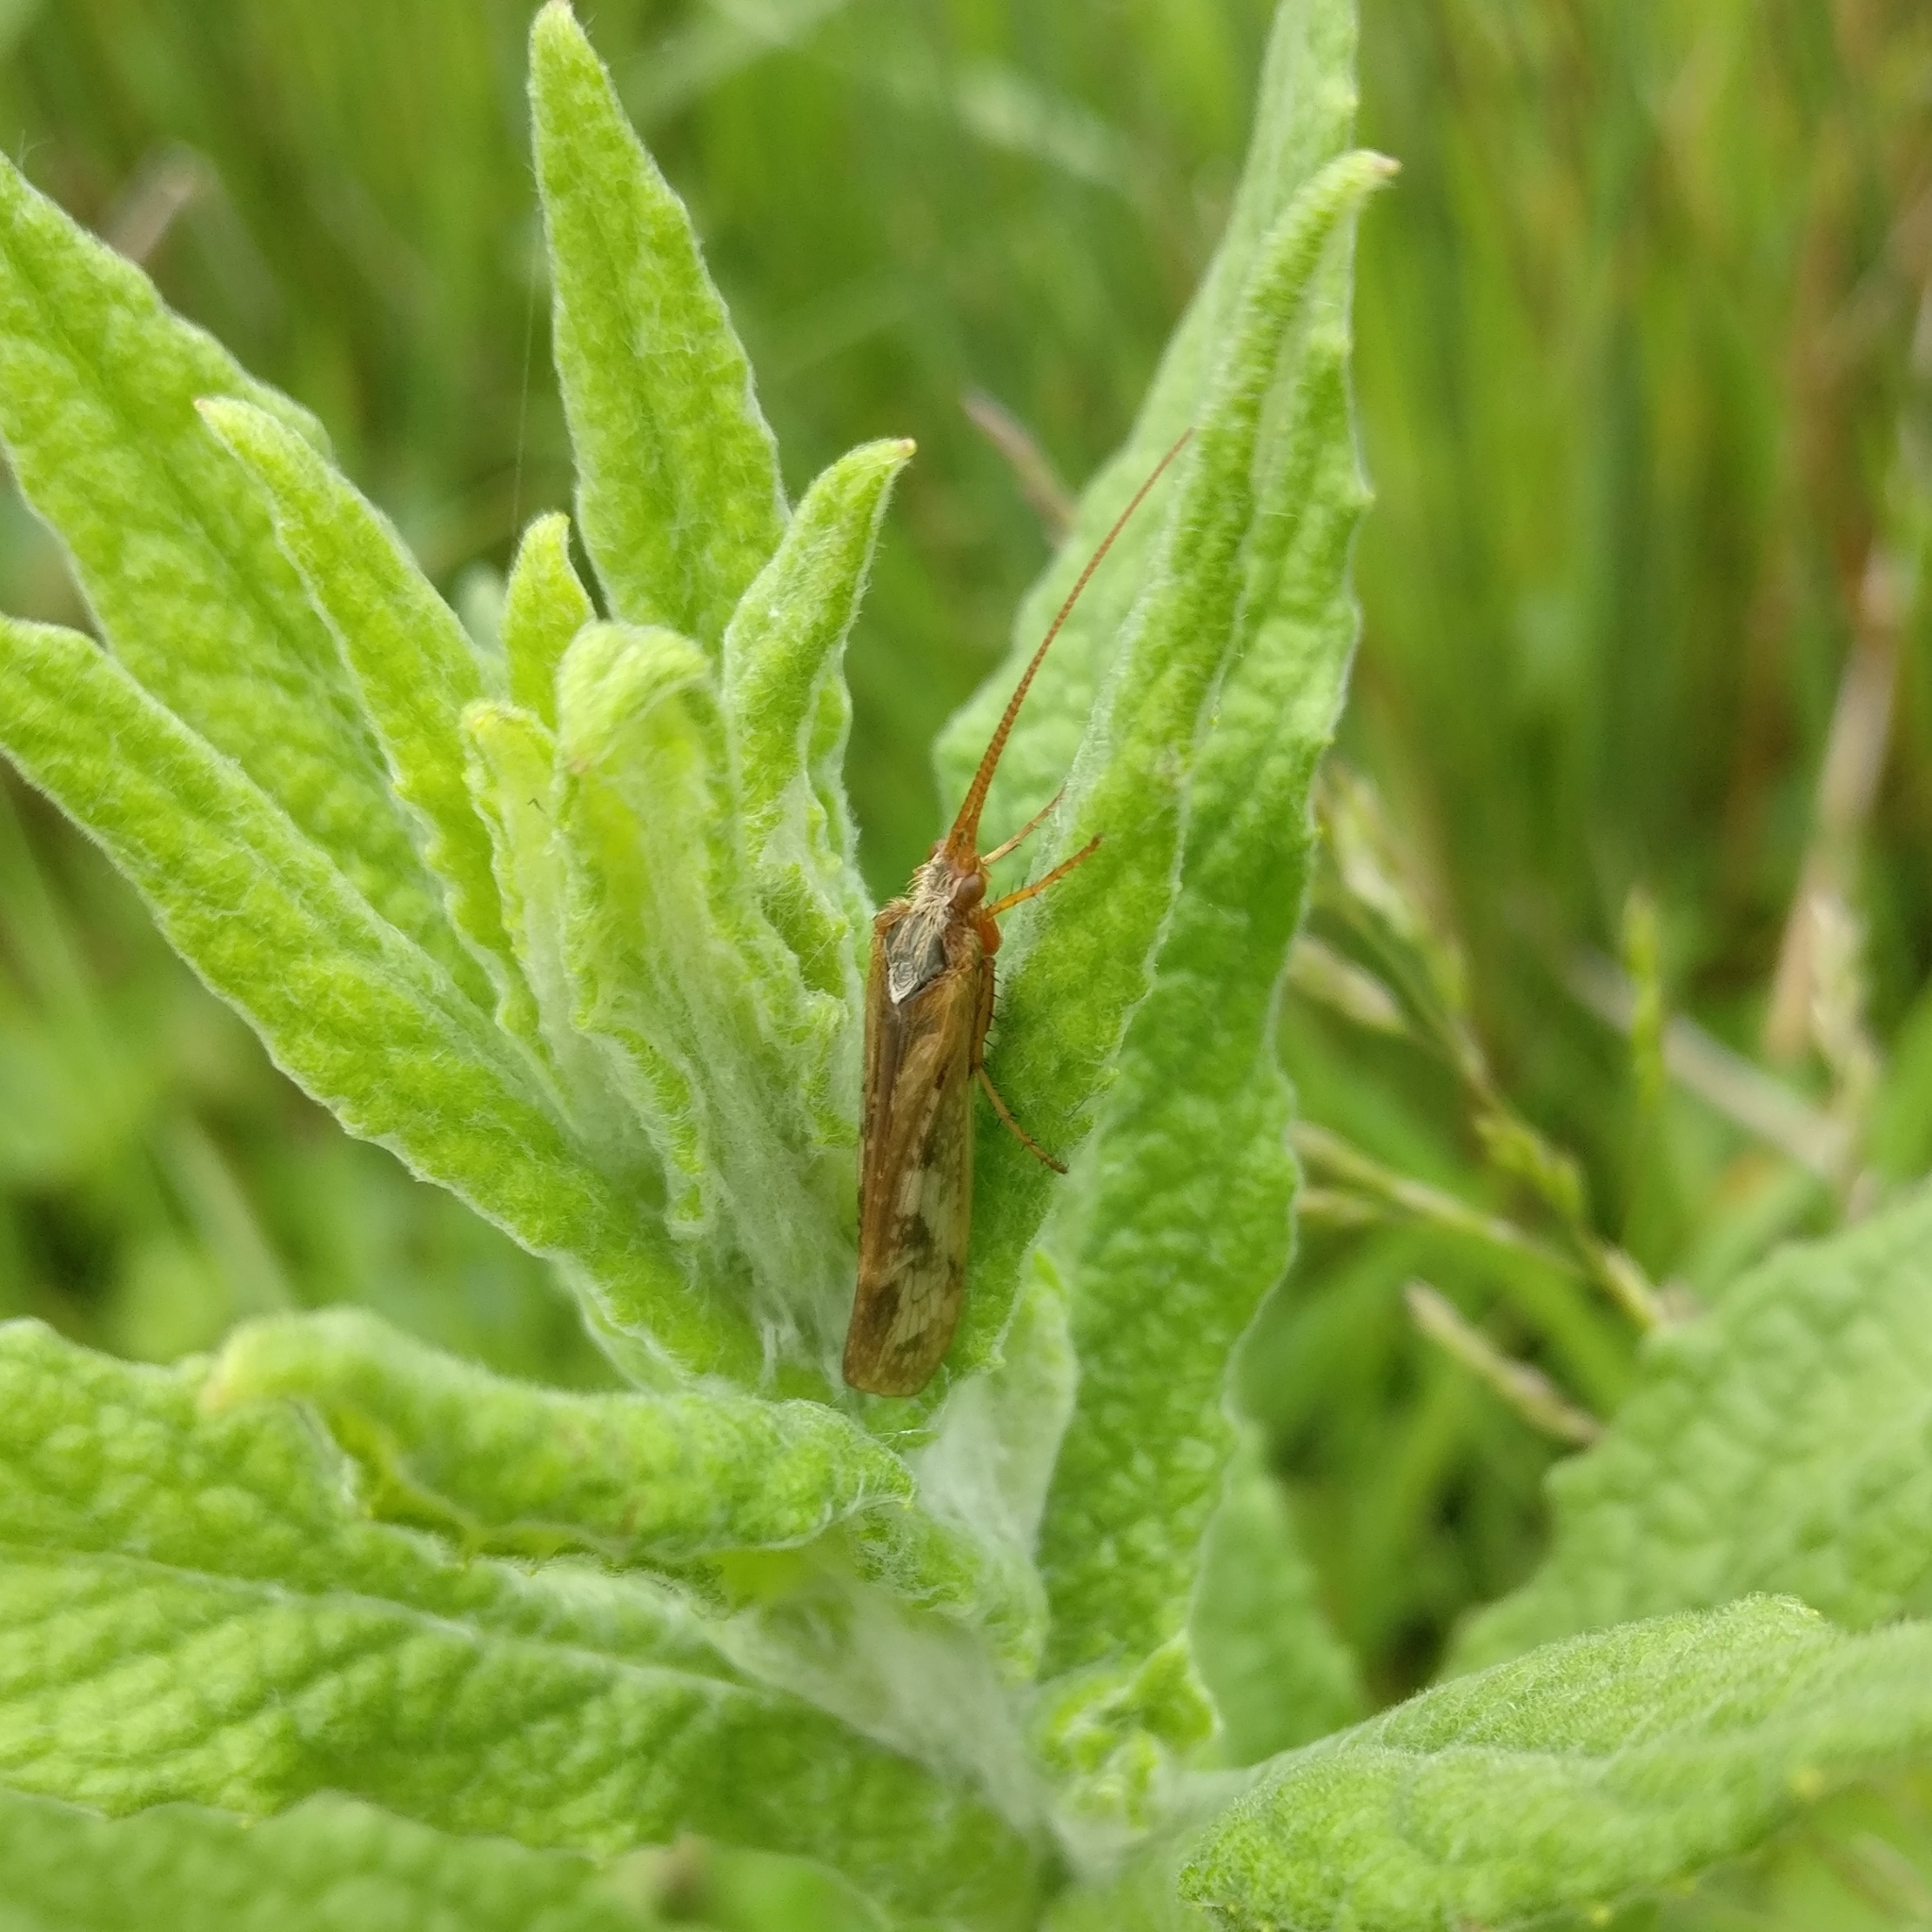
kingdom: Animalia
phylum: Arthropoda
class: Insecta
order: Trichoptera
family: Limnephilidae
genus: Limnephilus
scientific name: Limnephilus marmoratus
